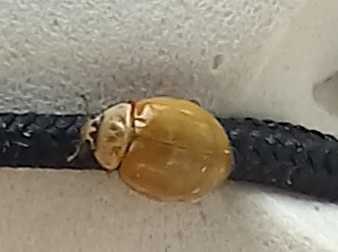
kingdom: Animalia
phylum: Arthropoda
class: Insecta
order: Coleoptera
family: Coccinellidae
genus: Adalia
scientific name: Adalia decempunctata
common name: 10-spot ladybird
